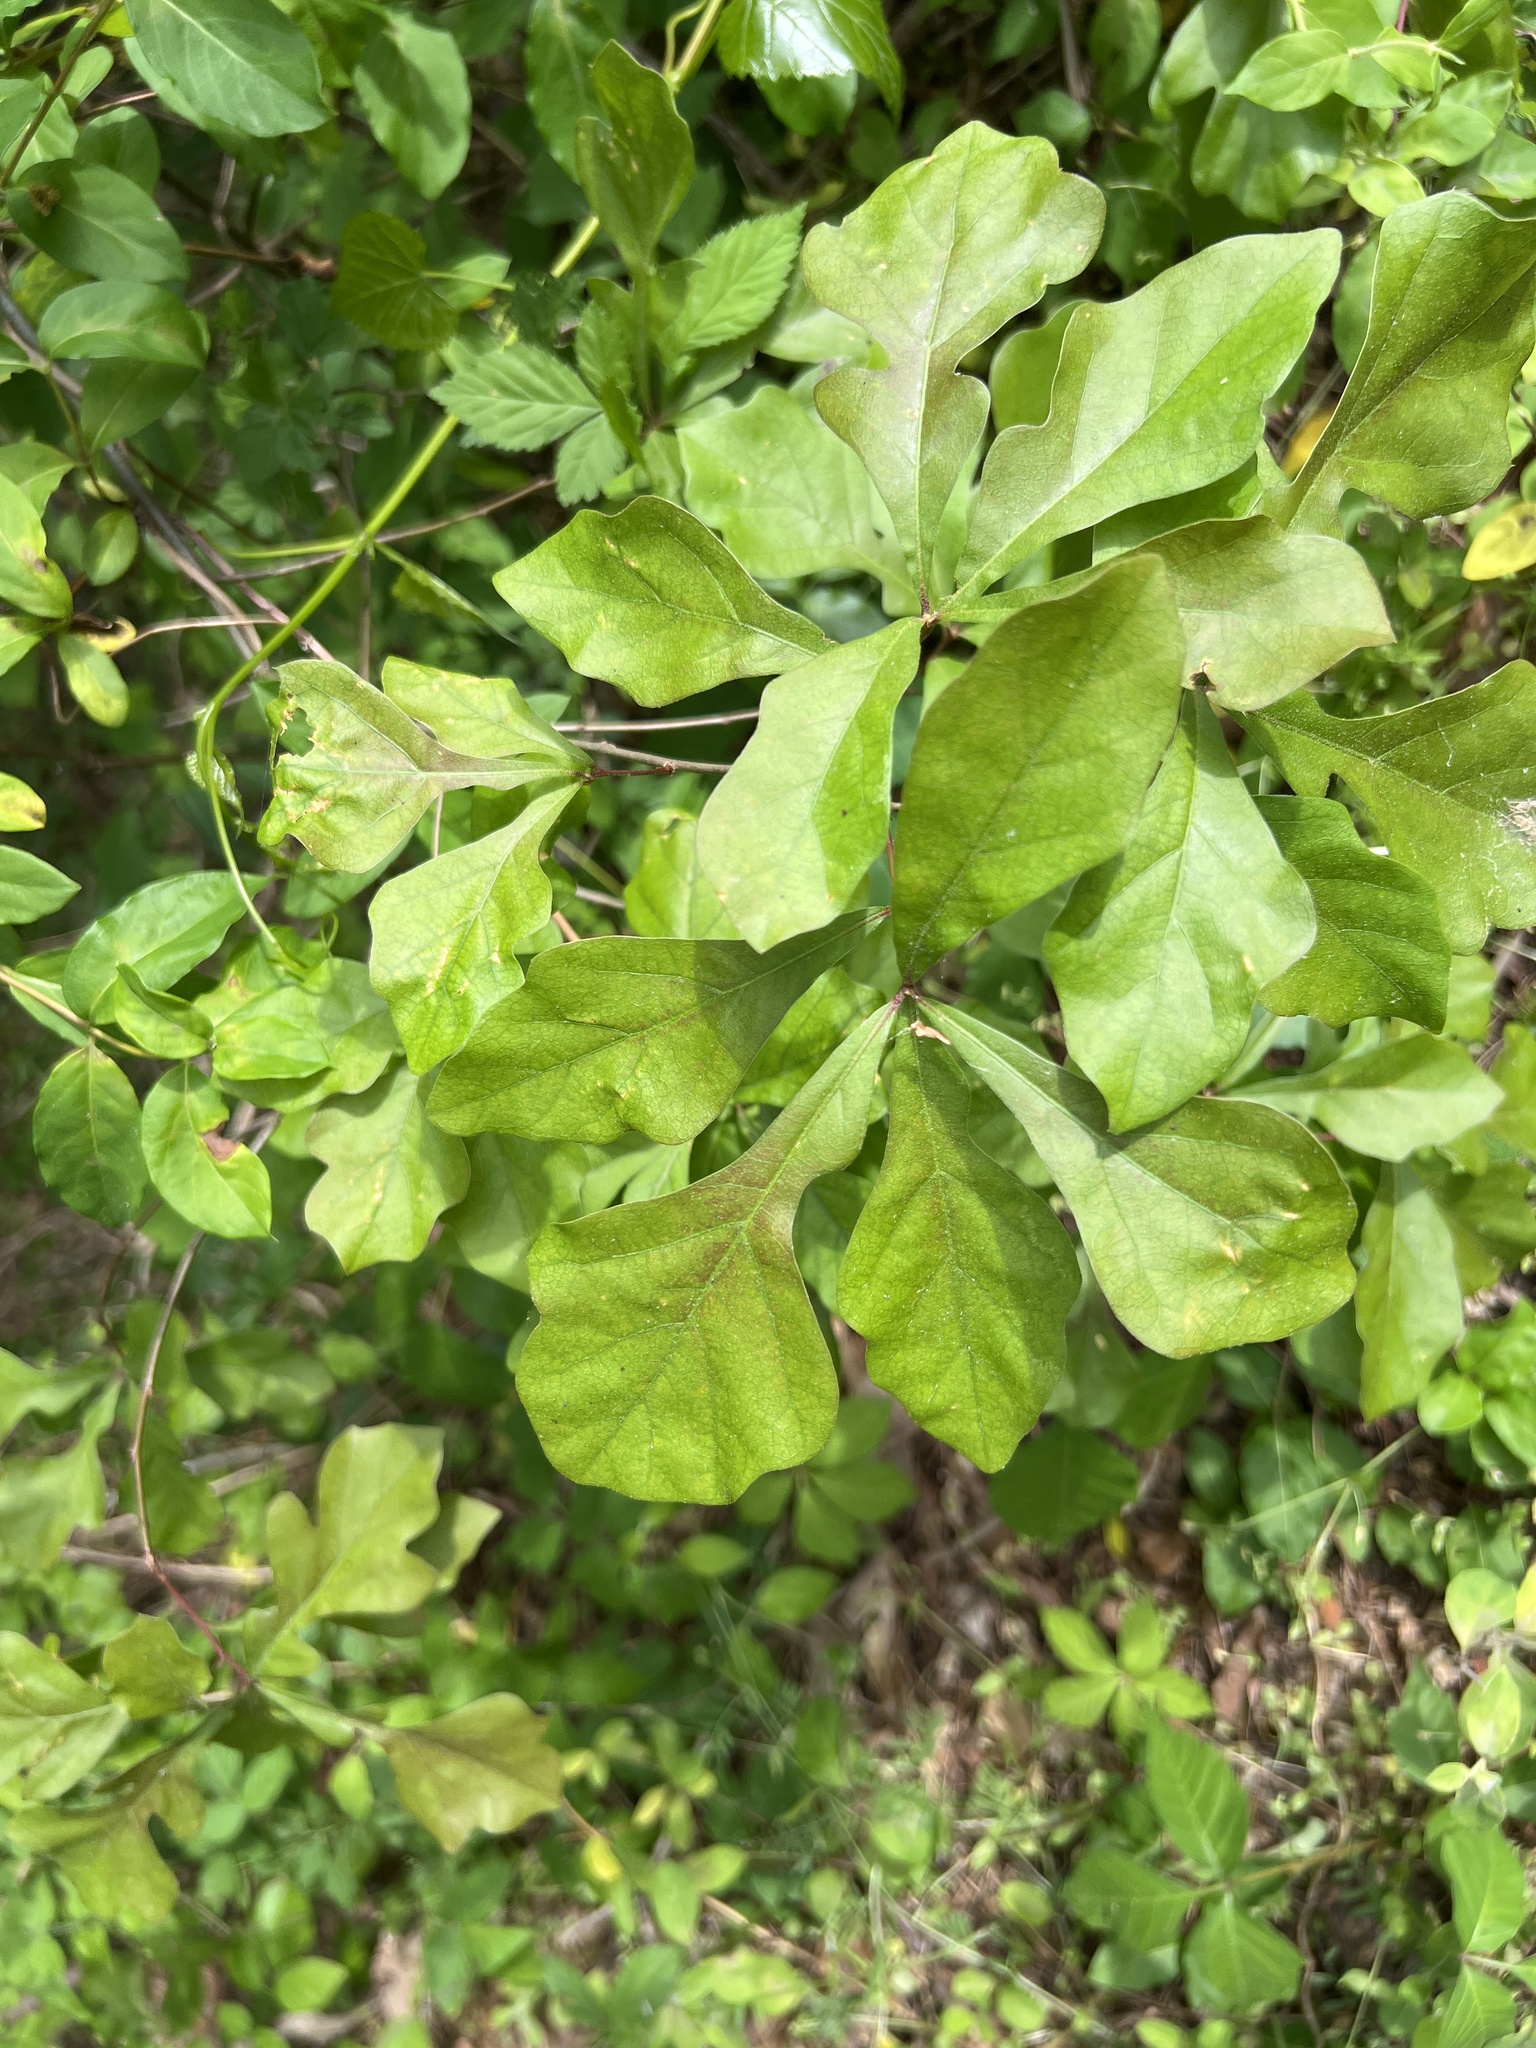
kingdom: Plantae
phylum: Tracheophyta
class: Magnoliopsida
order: Fagales
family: Fagaceae
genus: Quercus
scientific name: Quercus nigra
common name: Water oak
